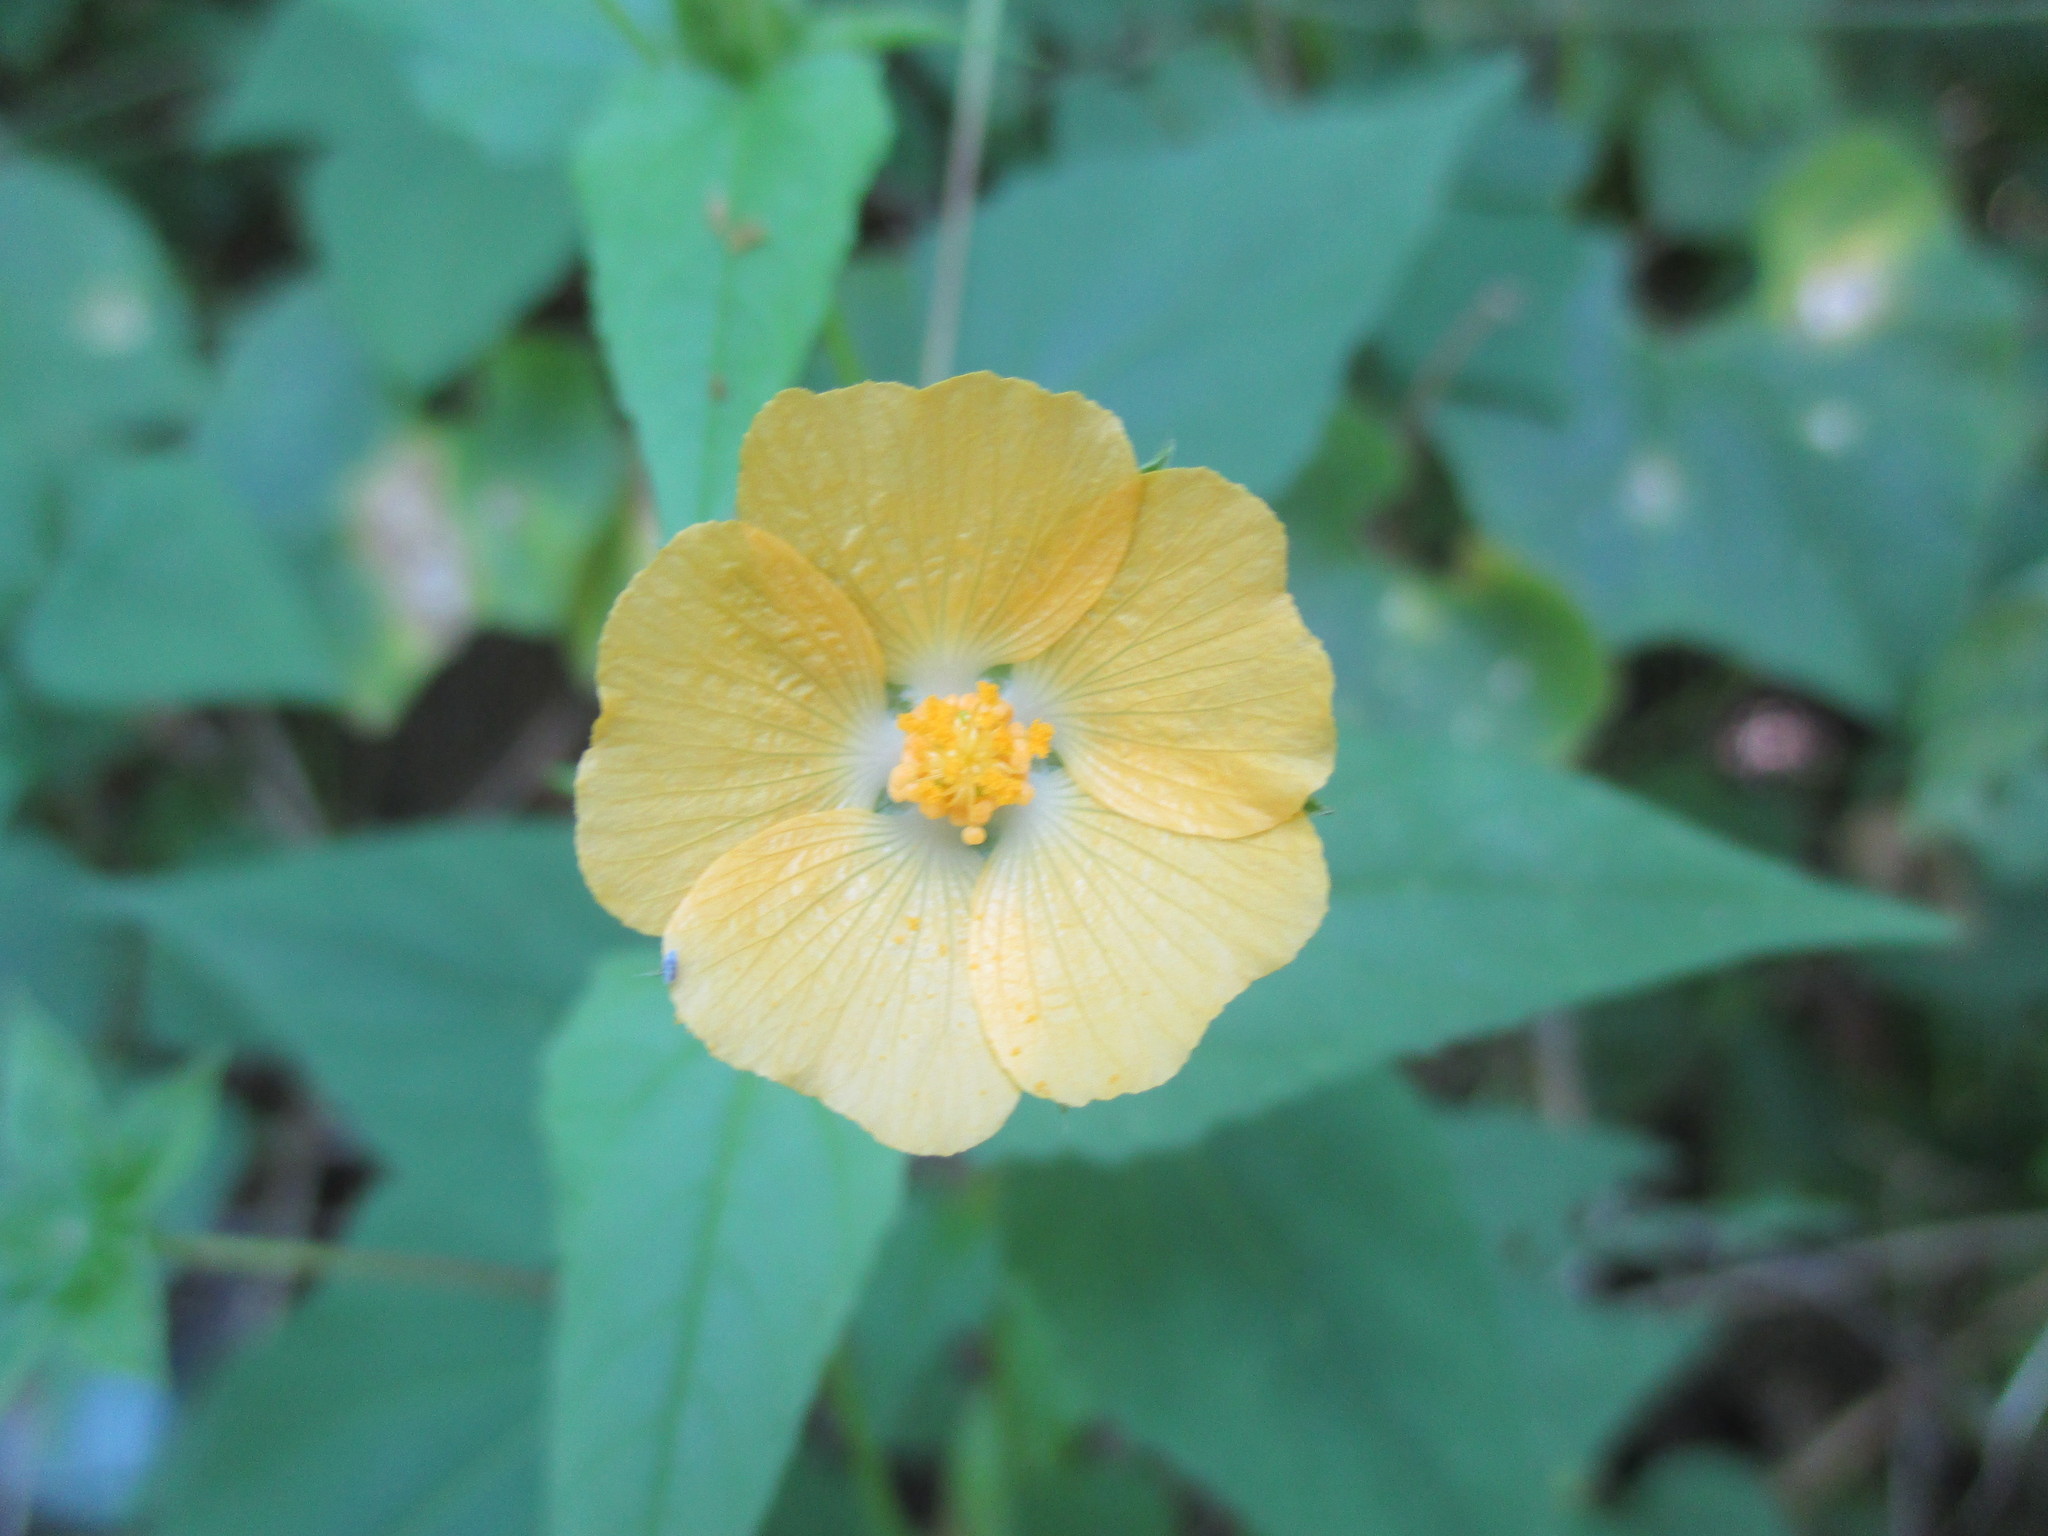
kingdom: Plantae
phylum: Tracheophyta
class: Magnoliopsida
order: Malvales
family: Malvaceae
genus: Anoda
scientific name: Anoda lanceolata
